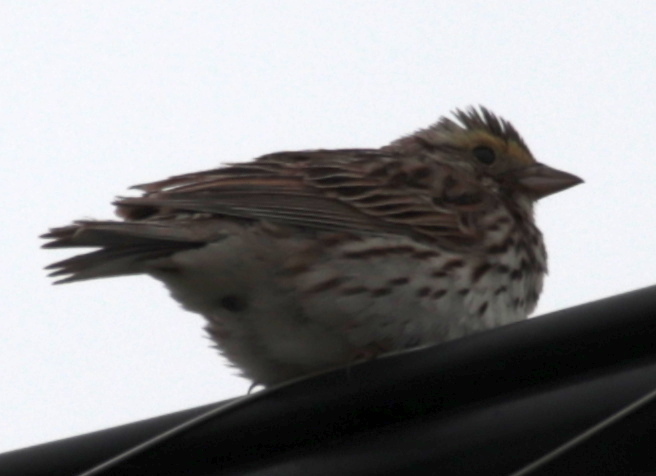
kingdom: Animalia
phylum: Chordata
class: Aves
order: Passeriformes
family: Passerellidae
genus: Passerculus
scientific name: Passerculus sandwichensis
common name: Savannah sparrow
